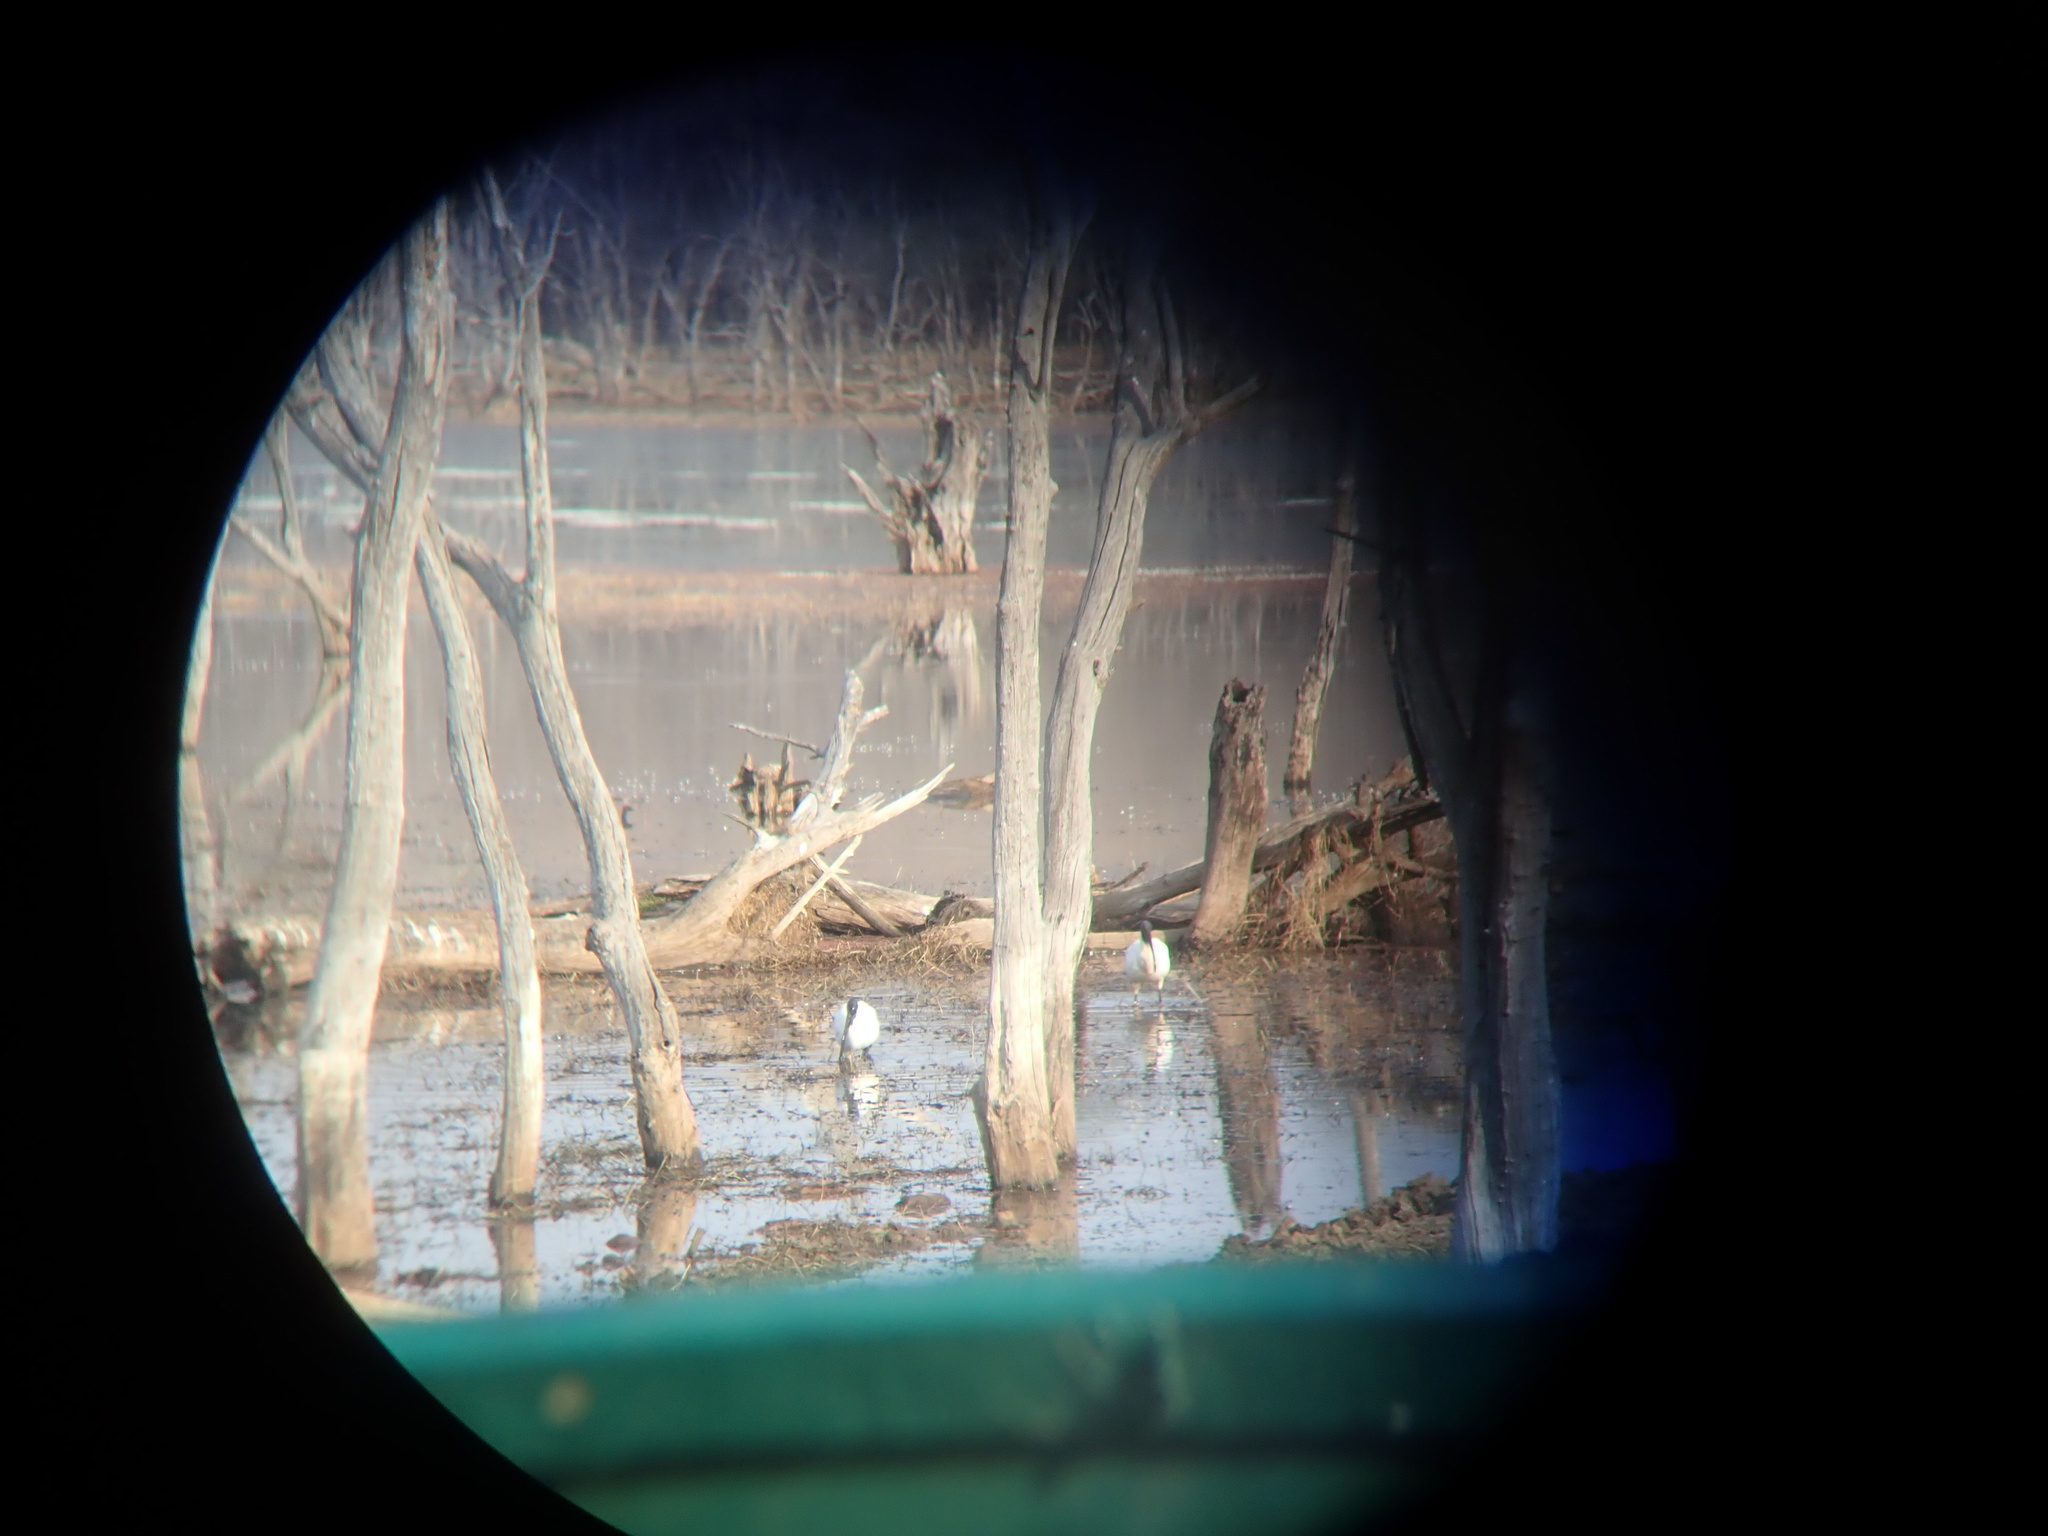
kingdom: Animalia
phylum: Chordata
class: Aves
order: Pelecaniformes
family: Threskiornithidae
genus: Threskiornis
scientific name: Threskiornis melanocephalus
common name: Black-headed ibis
